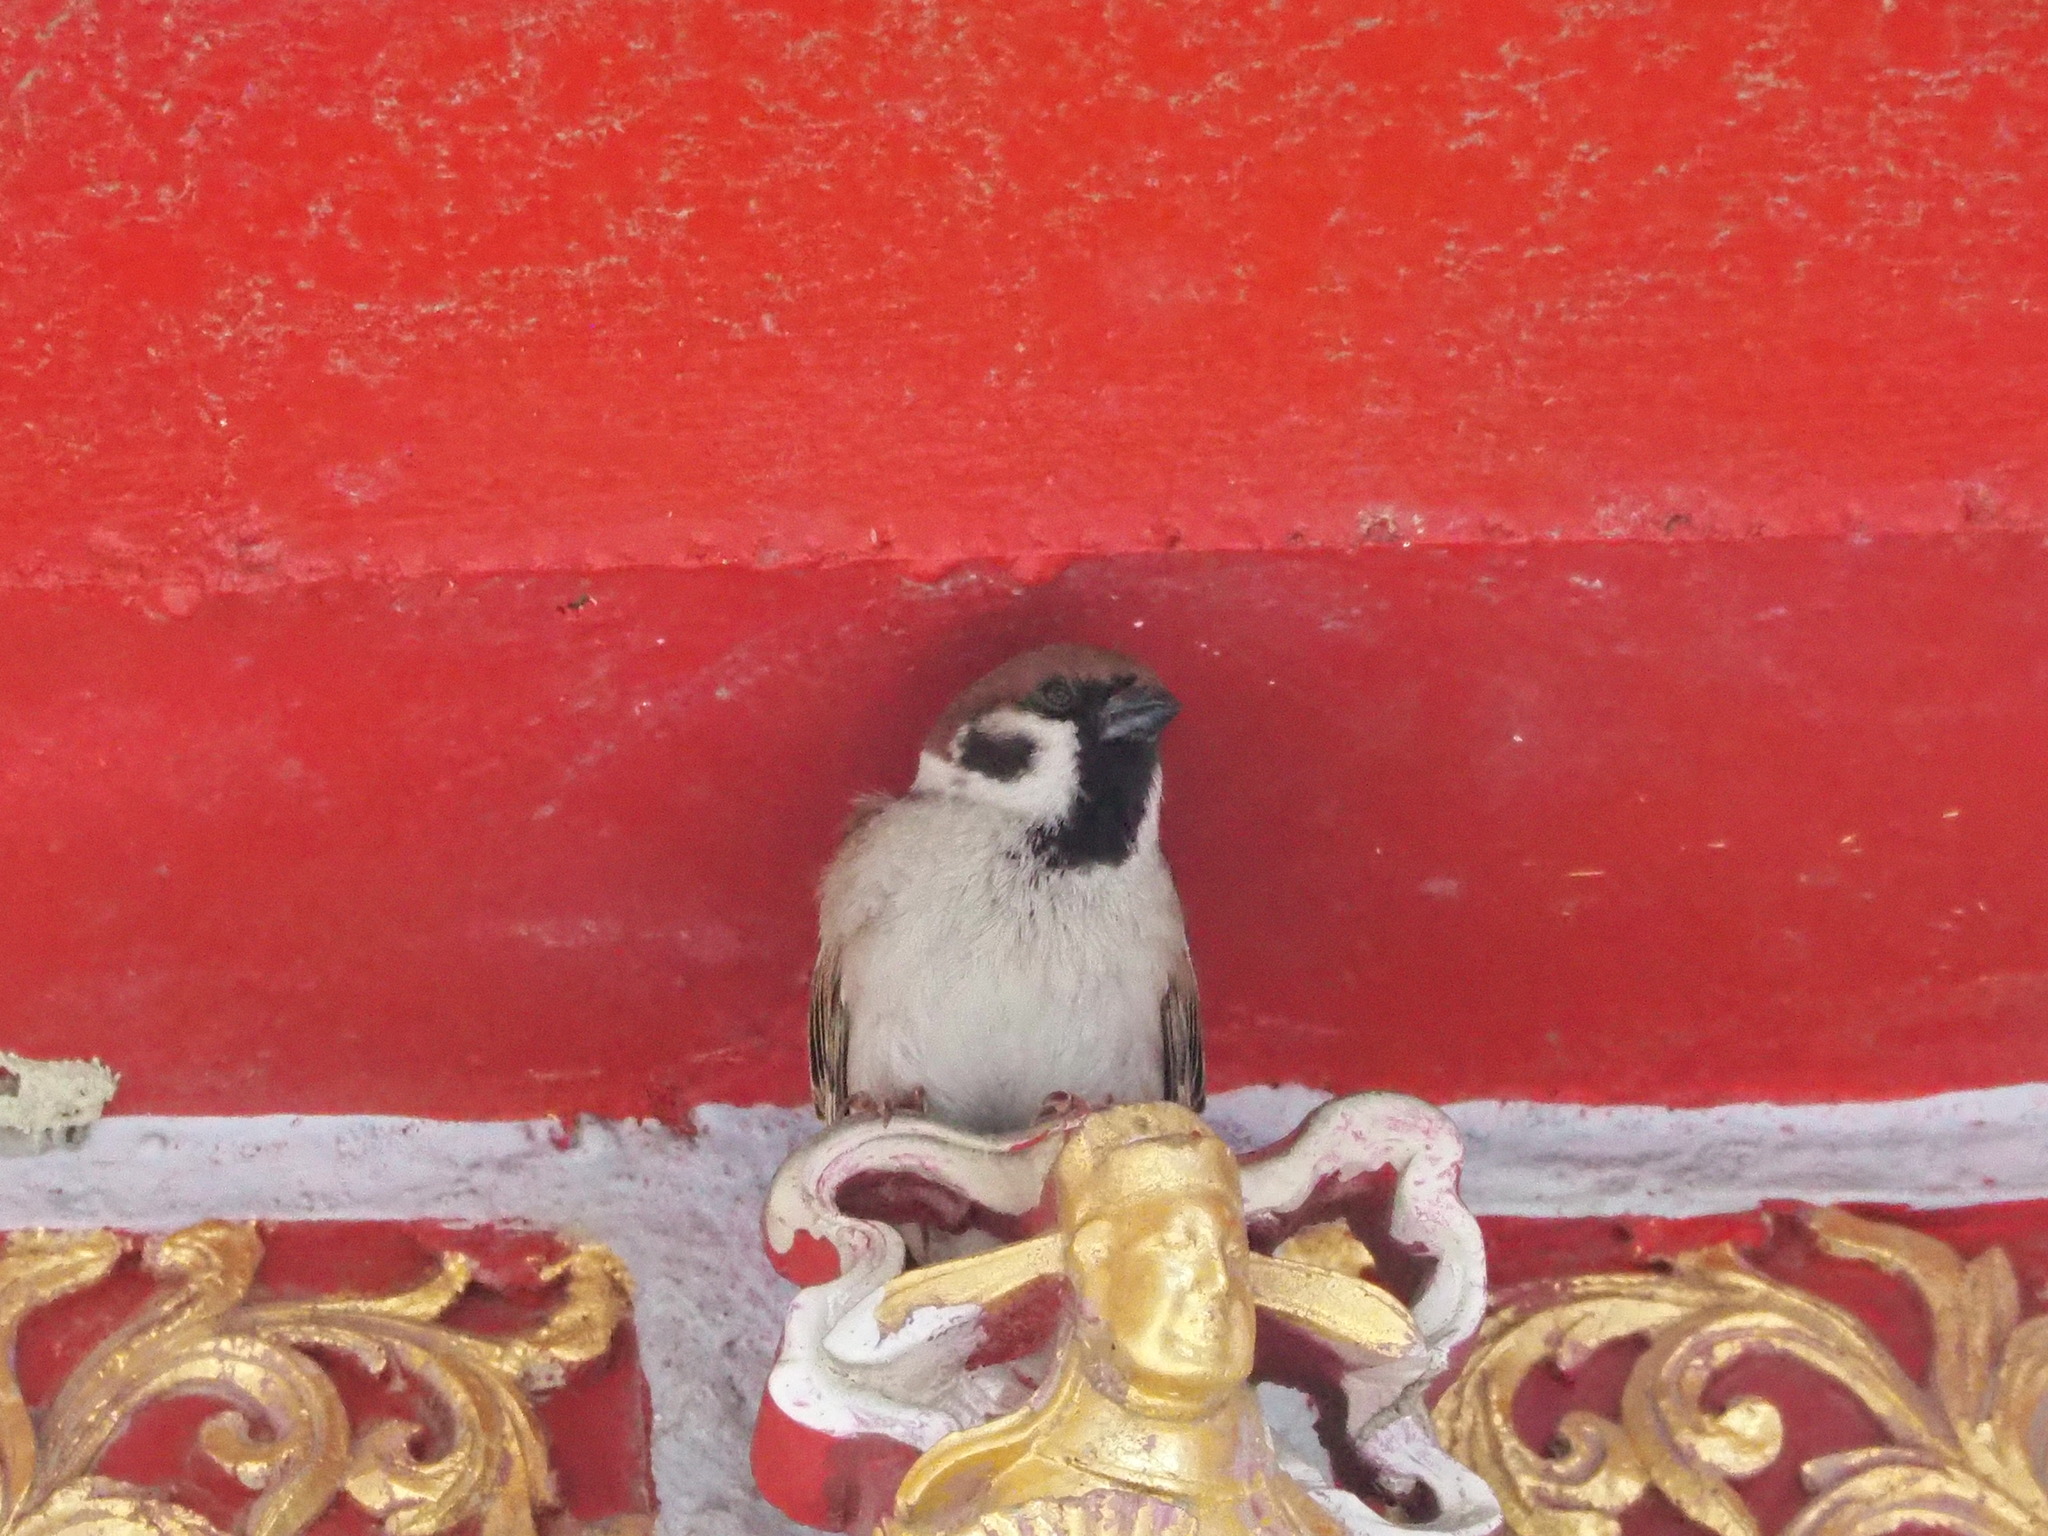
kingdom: Animalia
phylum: Chordata
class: Aves
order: Passeriformes
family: Passeridae
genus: Passer
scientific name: Passer montanus
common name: Eurasian tree sparrow
